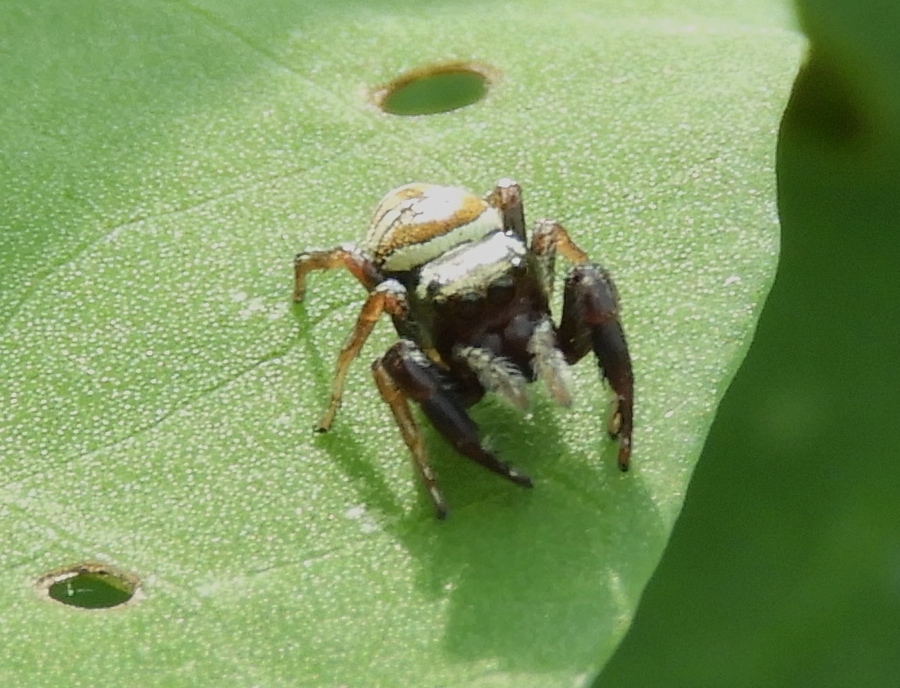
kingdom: Animalia
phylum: Arthropoda
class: Arachnida
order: Araneae
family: Salticidae
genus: Sassacus
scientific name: Sassacus
